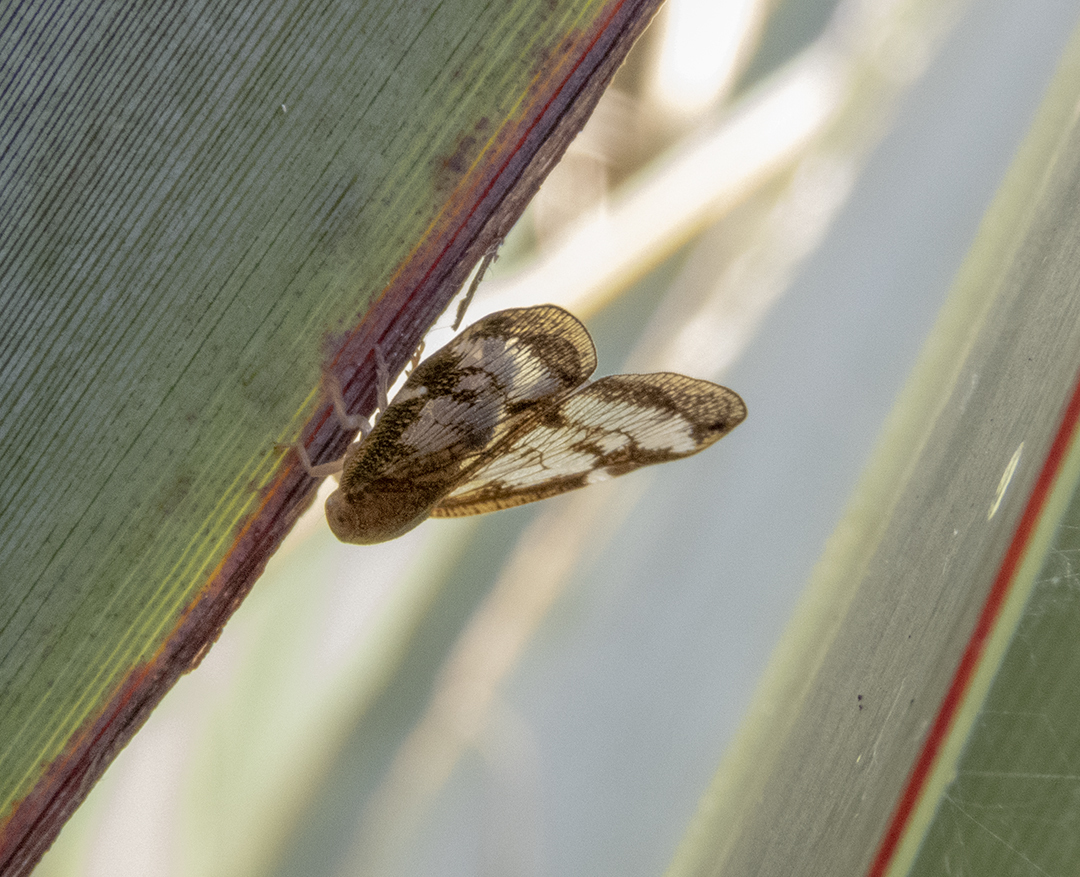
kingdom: Animalia
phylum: Arthropoda
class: Insecta
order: Hemiptera
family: Ricaniidae
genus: Scolypopa
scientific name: Scolypopa australis
